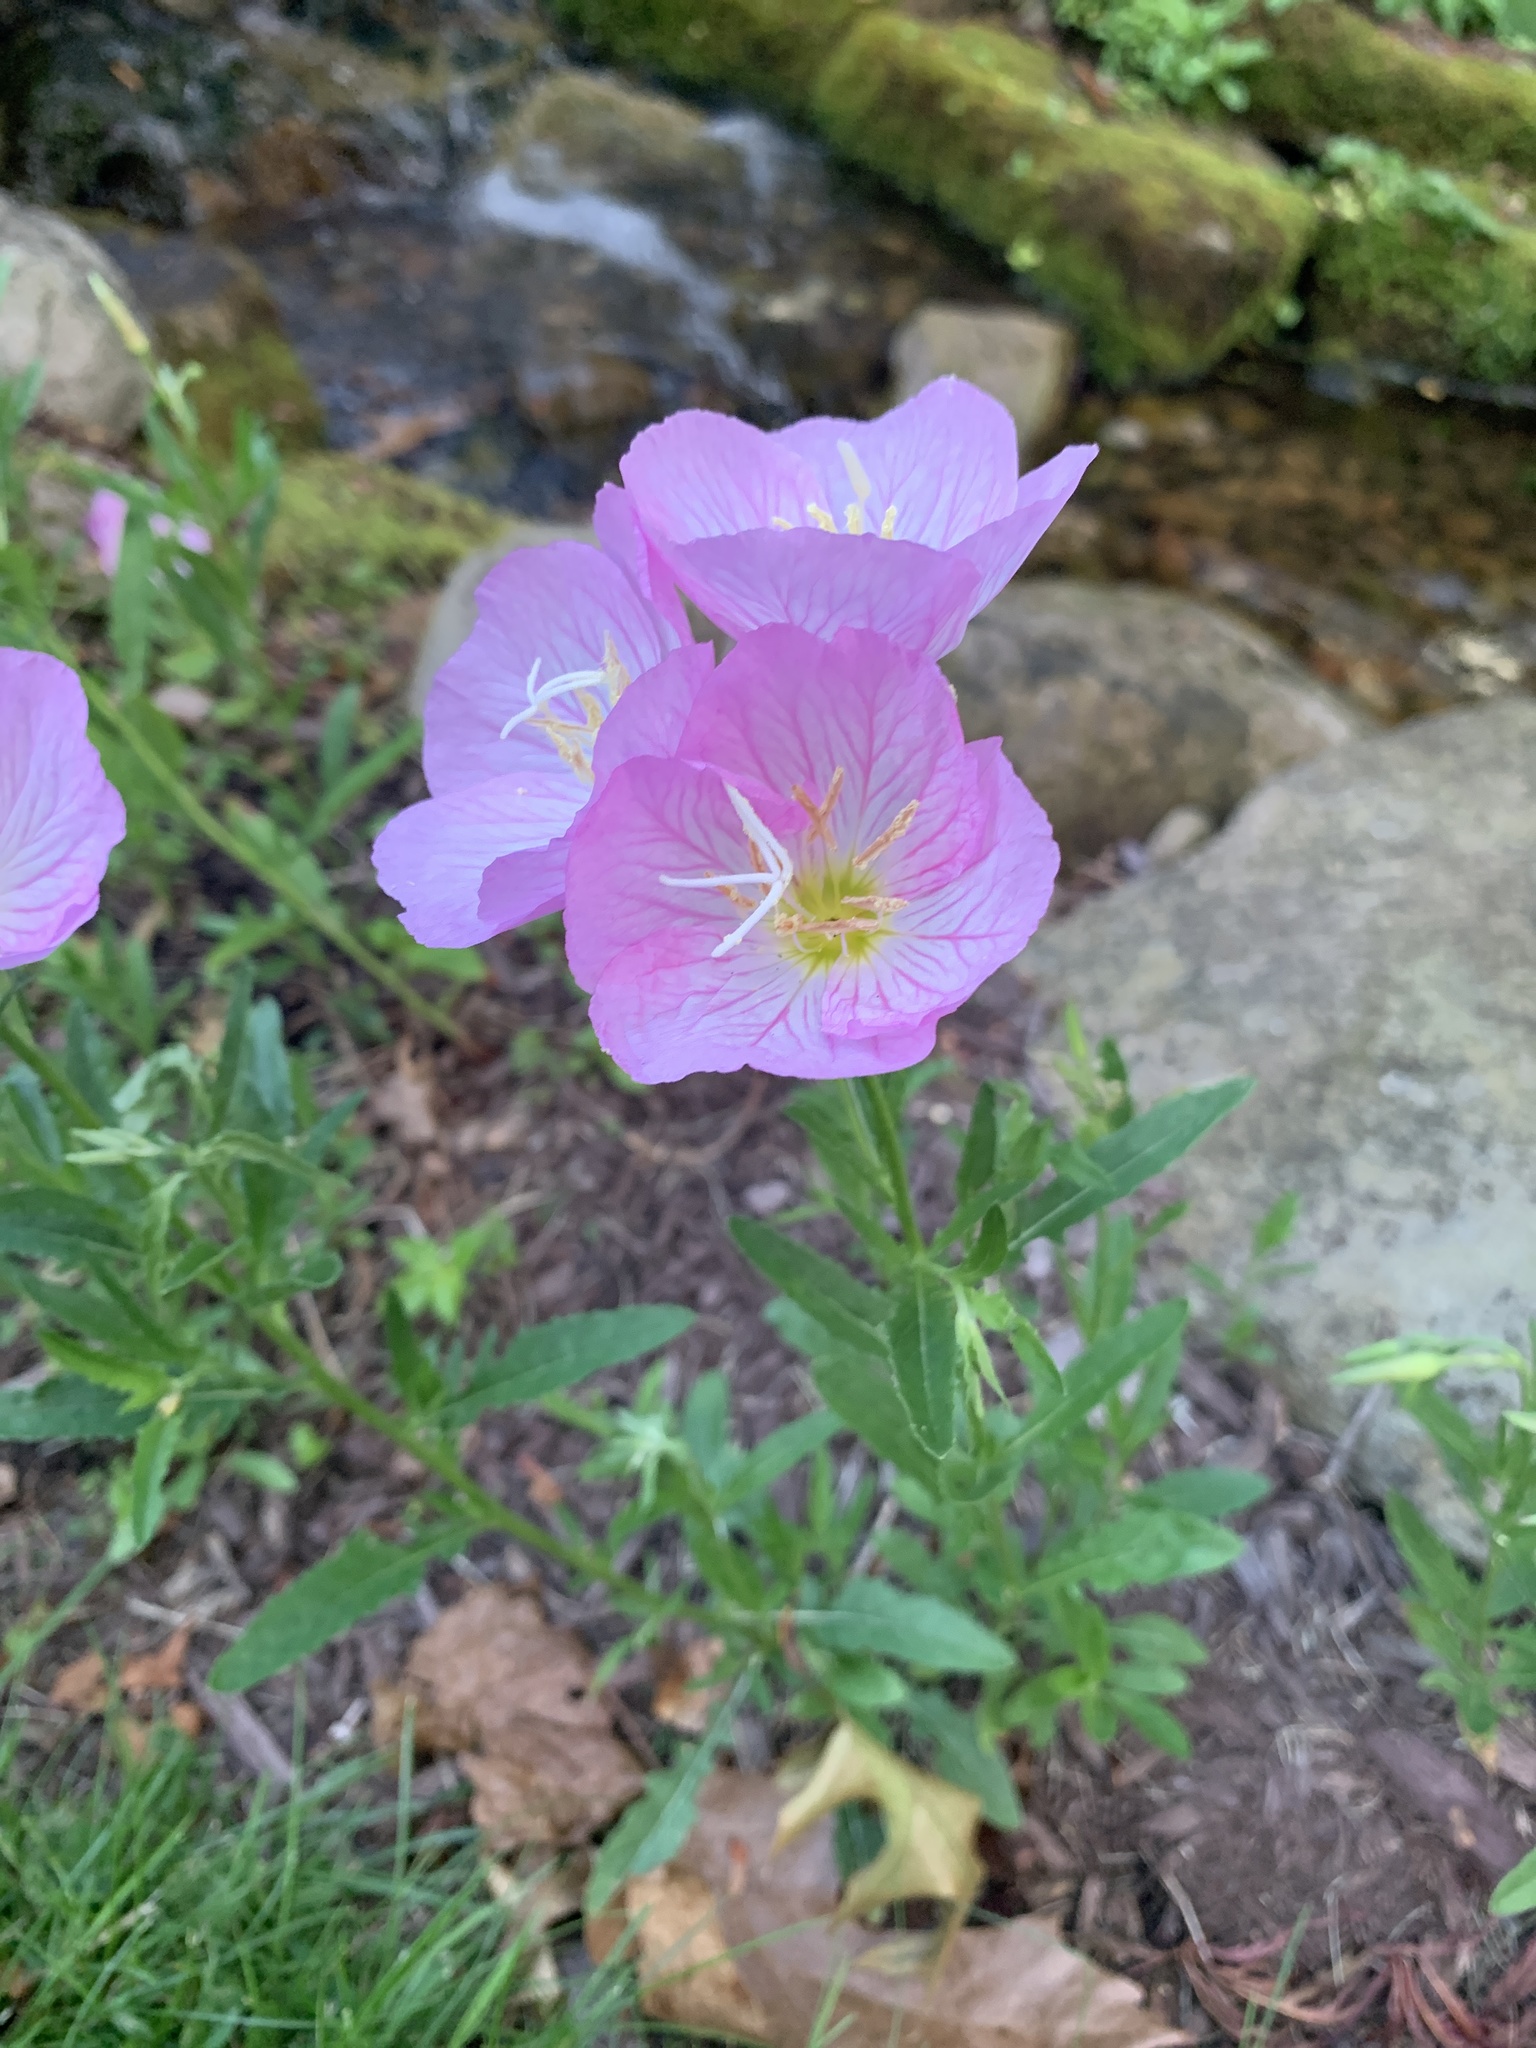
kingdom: Plantae
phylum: Tracheophyta
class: Magnoliopsida
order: Myrtales
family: Onagraceae
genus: Oenothera
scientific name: Oenothera speciosa
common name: White evening-primrose
